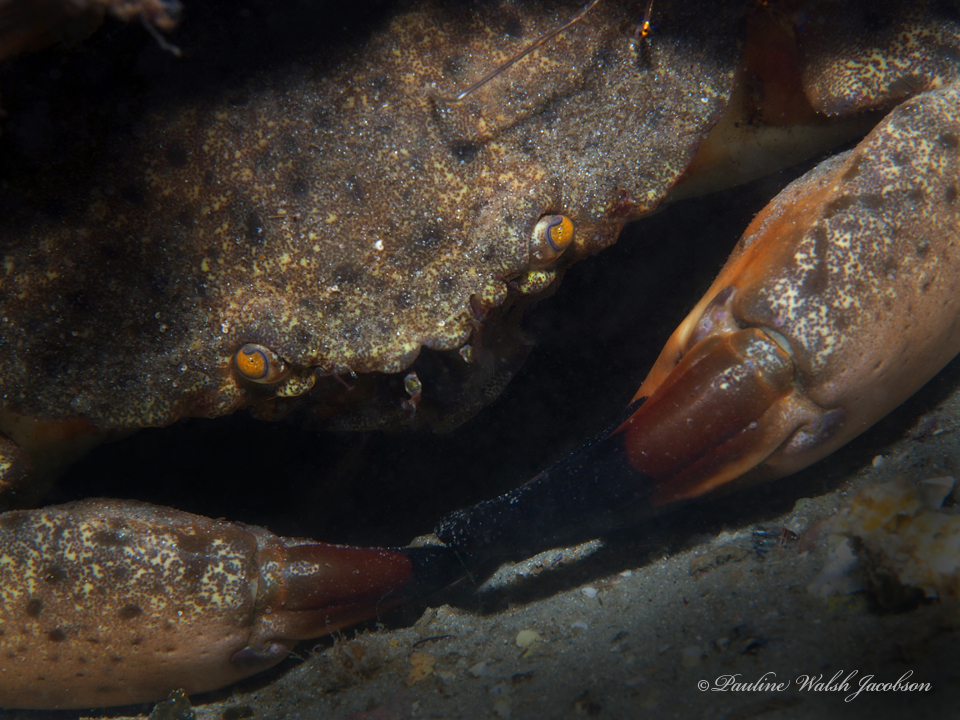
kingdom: Animalia
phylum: Arthropoda
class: Malacostraca
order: Decapoda
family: Menippidae
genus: Menippe
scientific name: Menippe mercenaria
